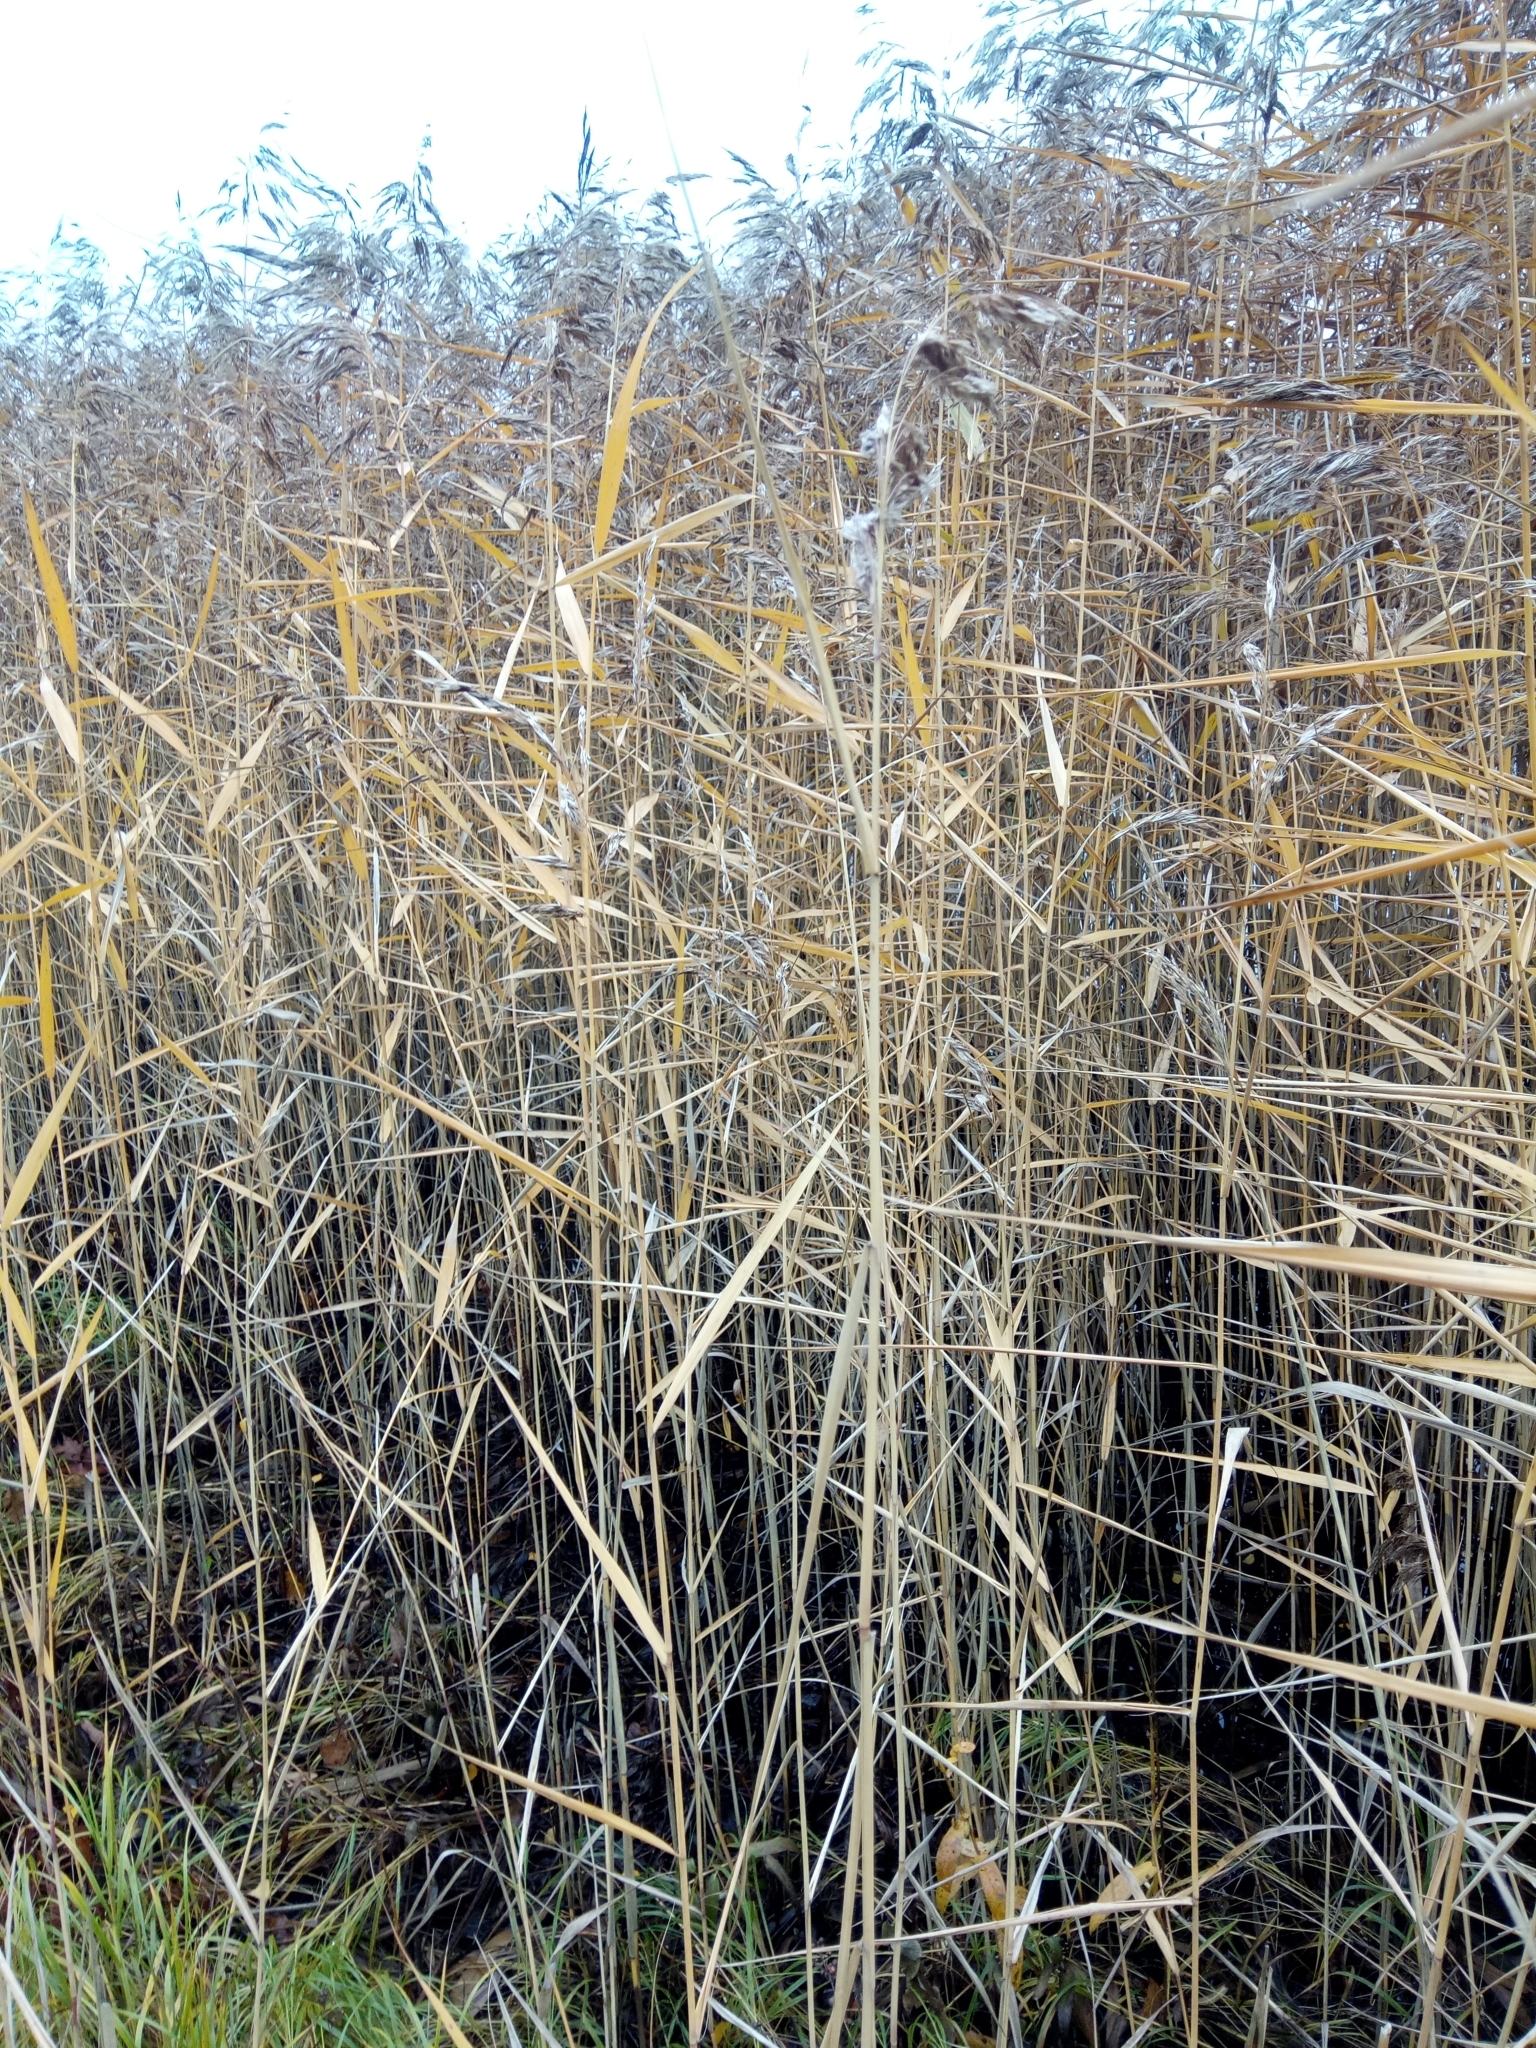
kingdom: Plantae
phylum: Tracheophyta
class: Liliopsida
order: Poales
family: Poaceae
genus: Phragmites
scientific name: Phragmites australis
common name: Common reed
